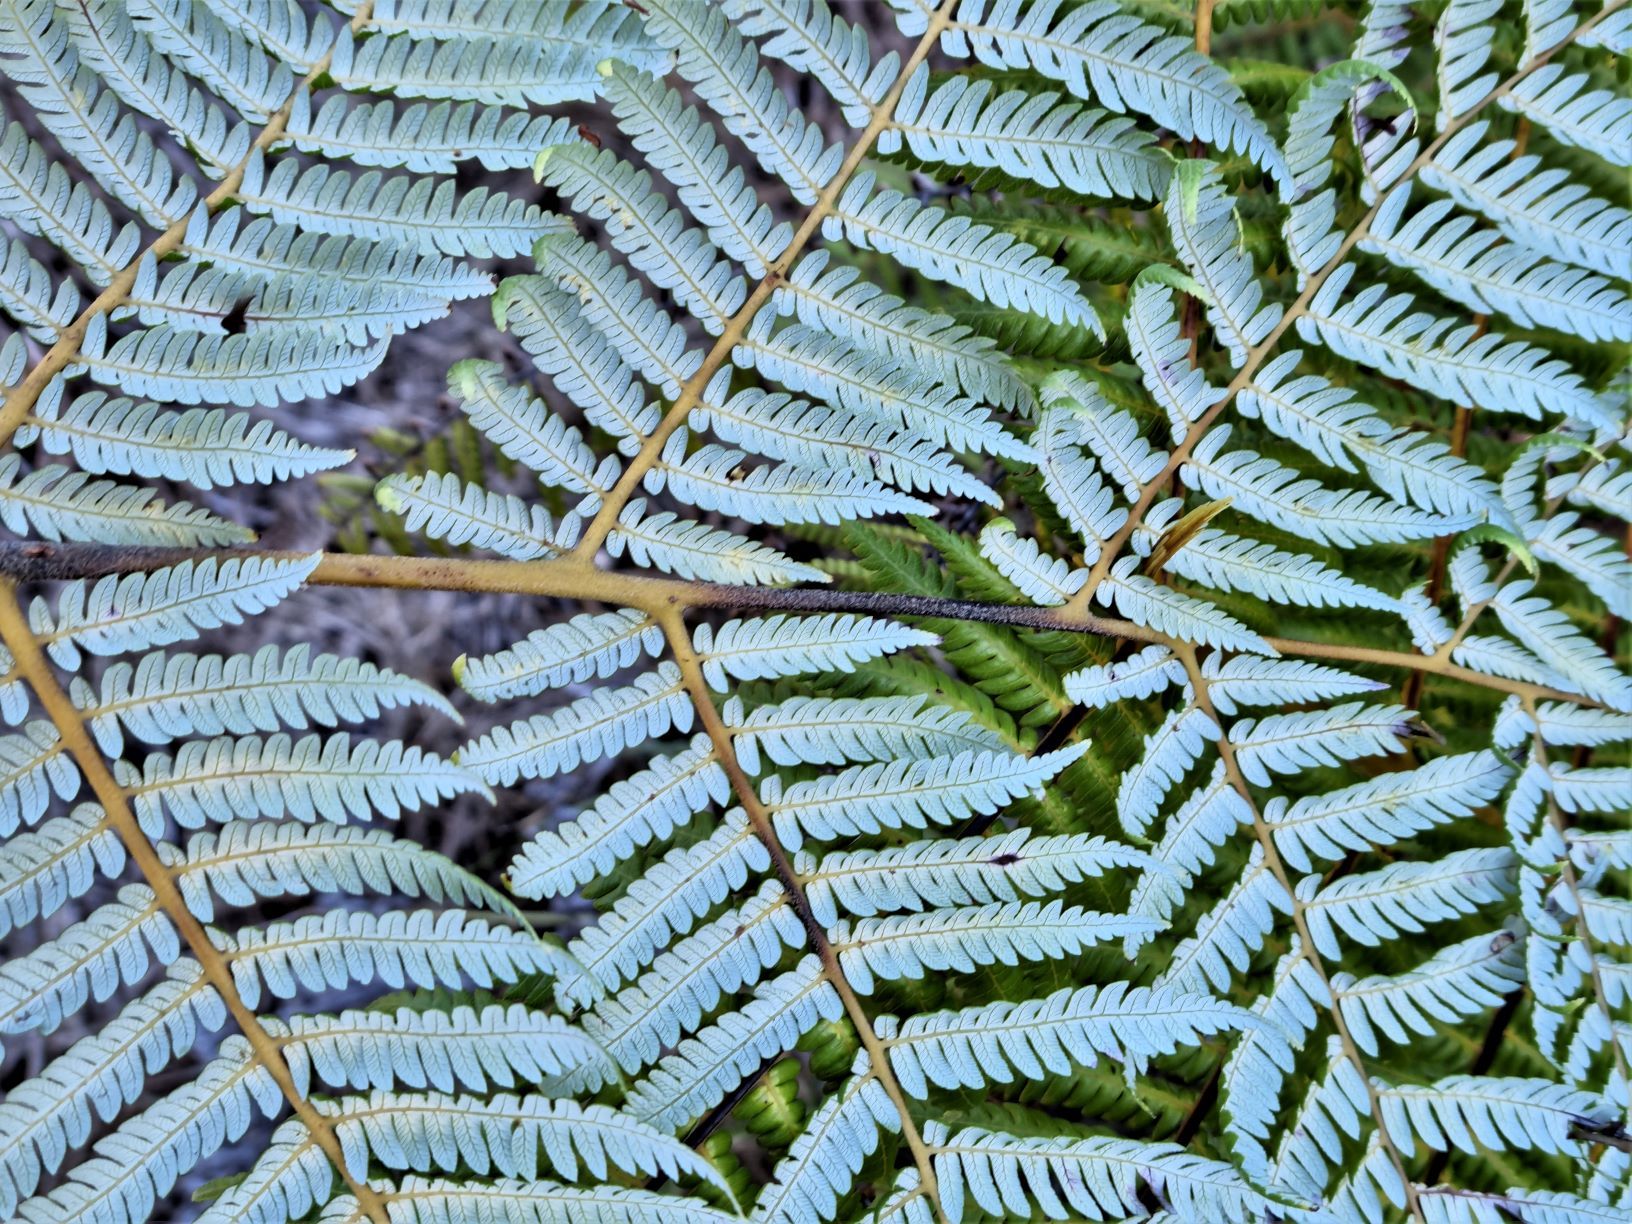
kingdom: Plantae
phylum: Tracheophyta
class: Polypodiopsida
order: Cyatheales
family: Cyatheaceae
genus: Alsophila
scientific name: Alsophila dealbata
